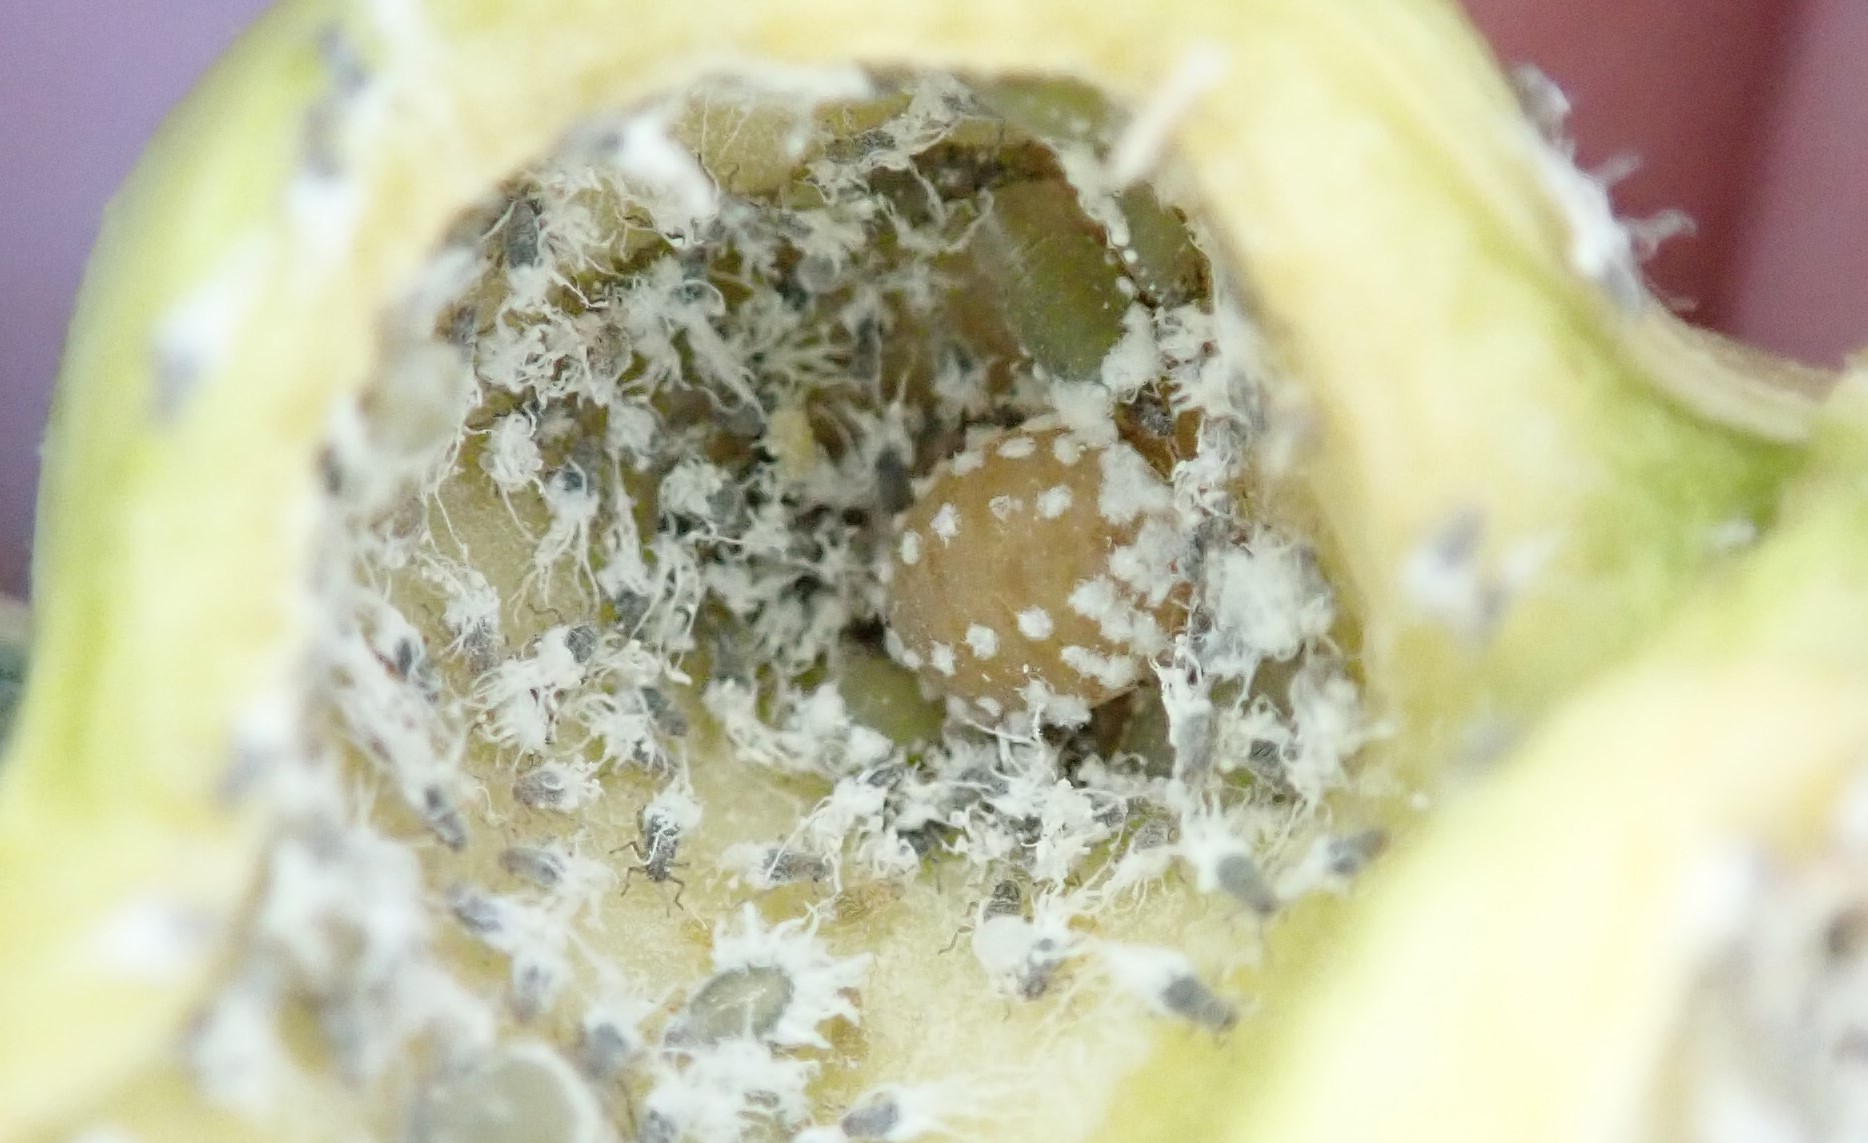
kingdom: Animalia
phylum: Arthropoda
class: Insecta
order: Hemiptera
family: Aphididae
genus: Pemphigus
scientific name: Pemphigus obesinymphae
